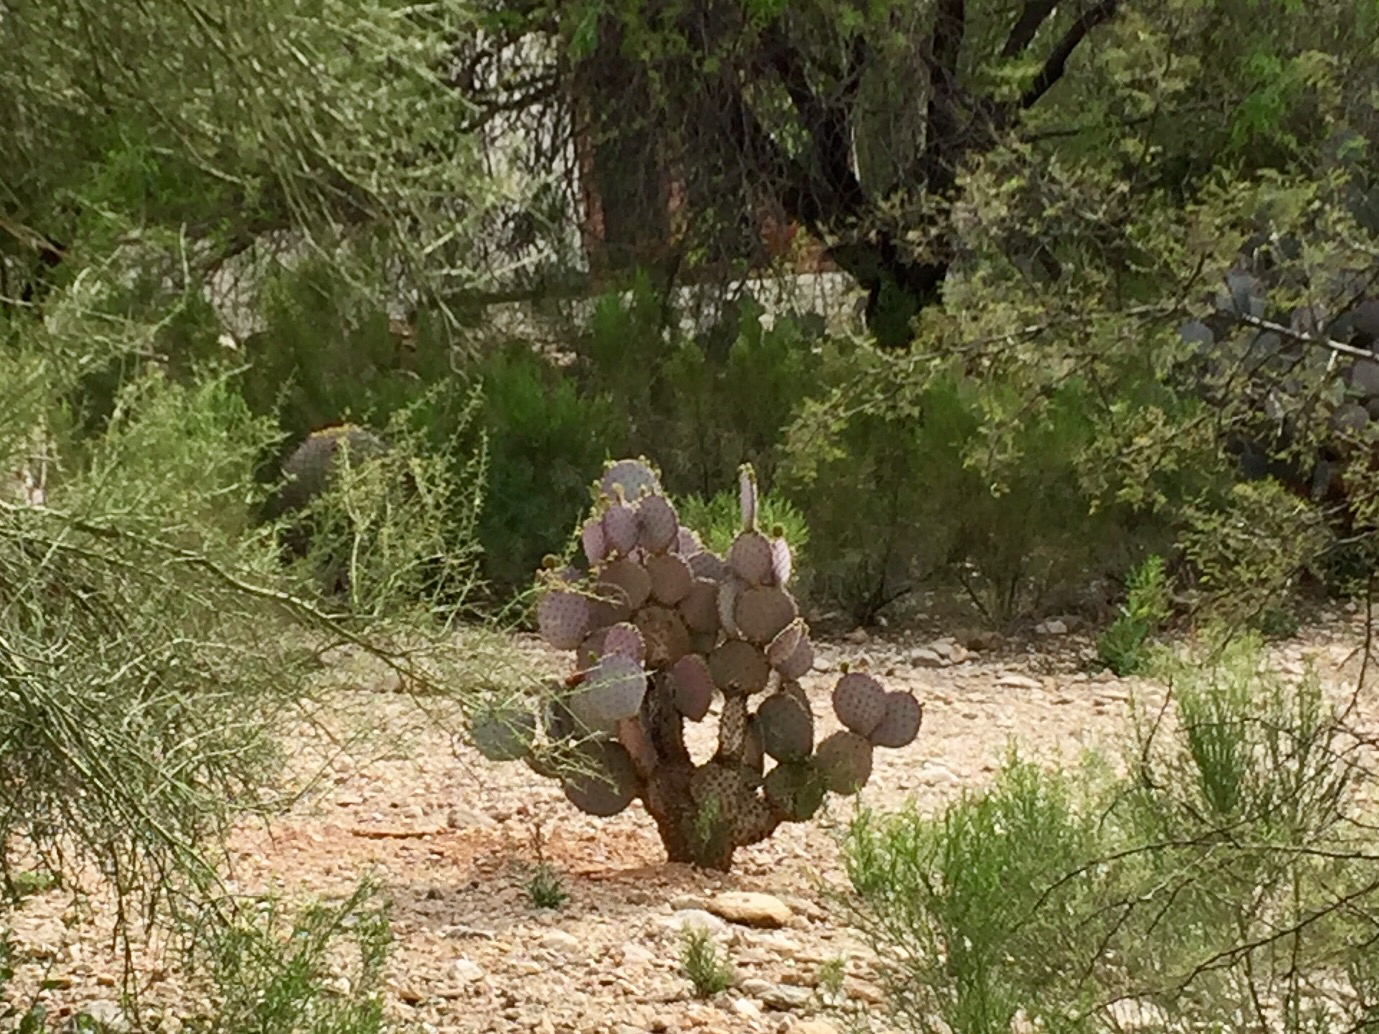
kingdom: Plantae
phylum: Tracheophyta
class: Magnoliopsida
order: Caryophyllales
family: Cactaceae
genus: Opuntia
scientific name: Opuntia gosseliniana
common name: Violet prickly-pear
